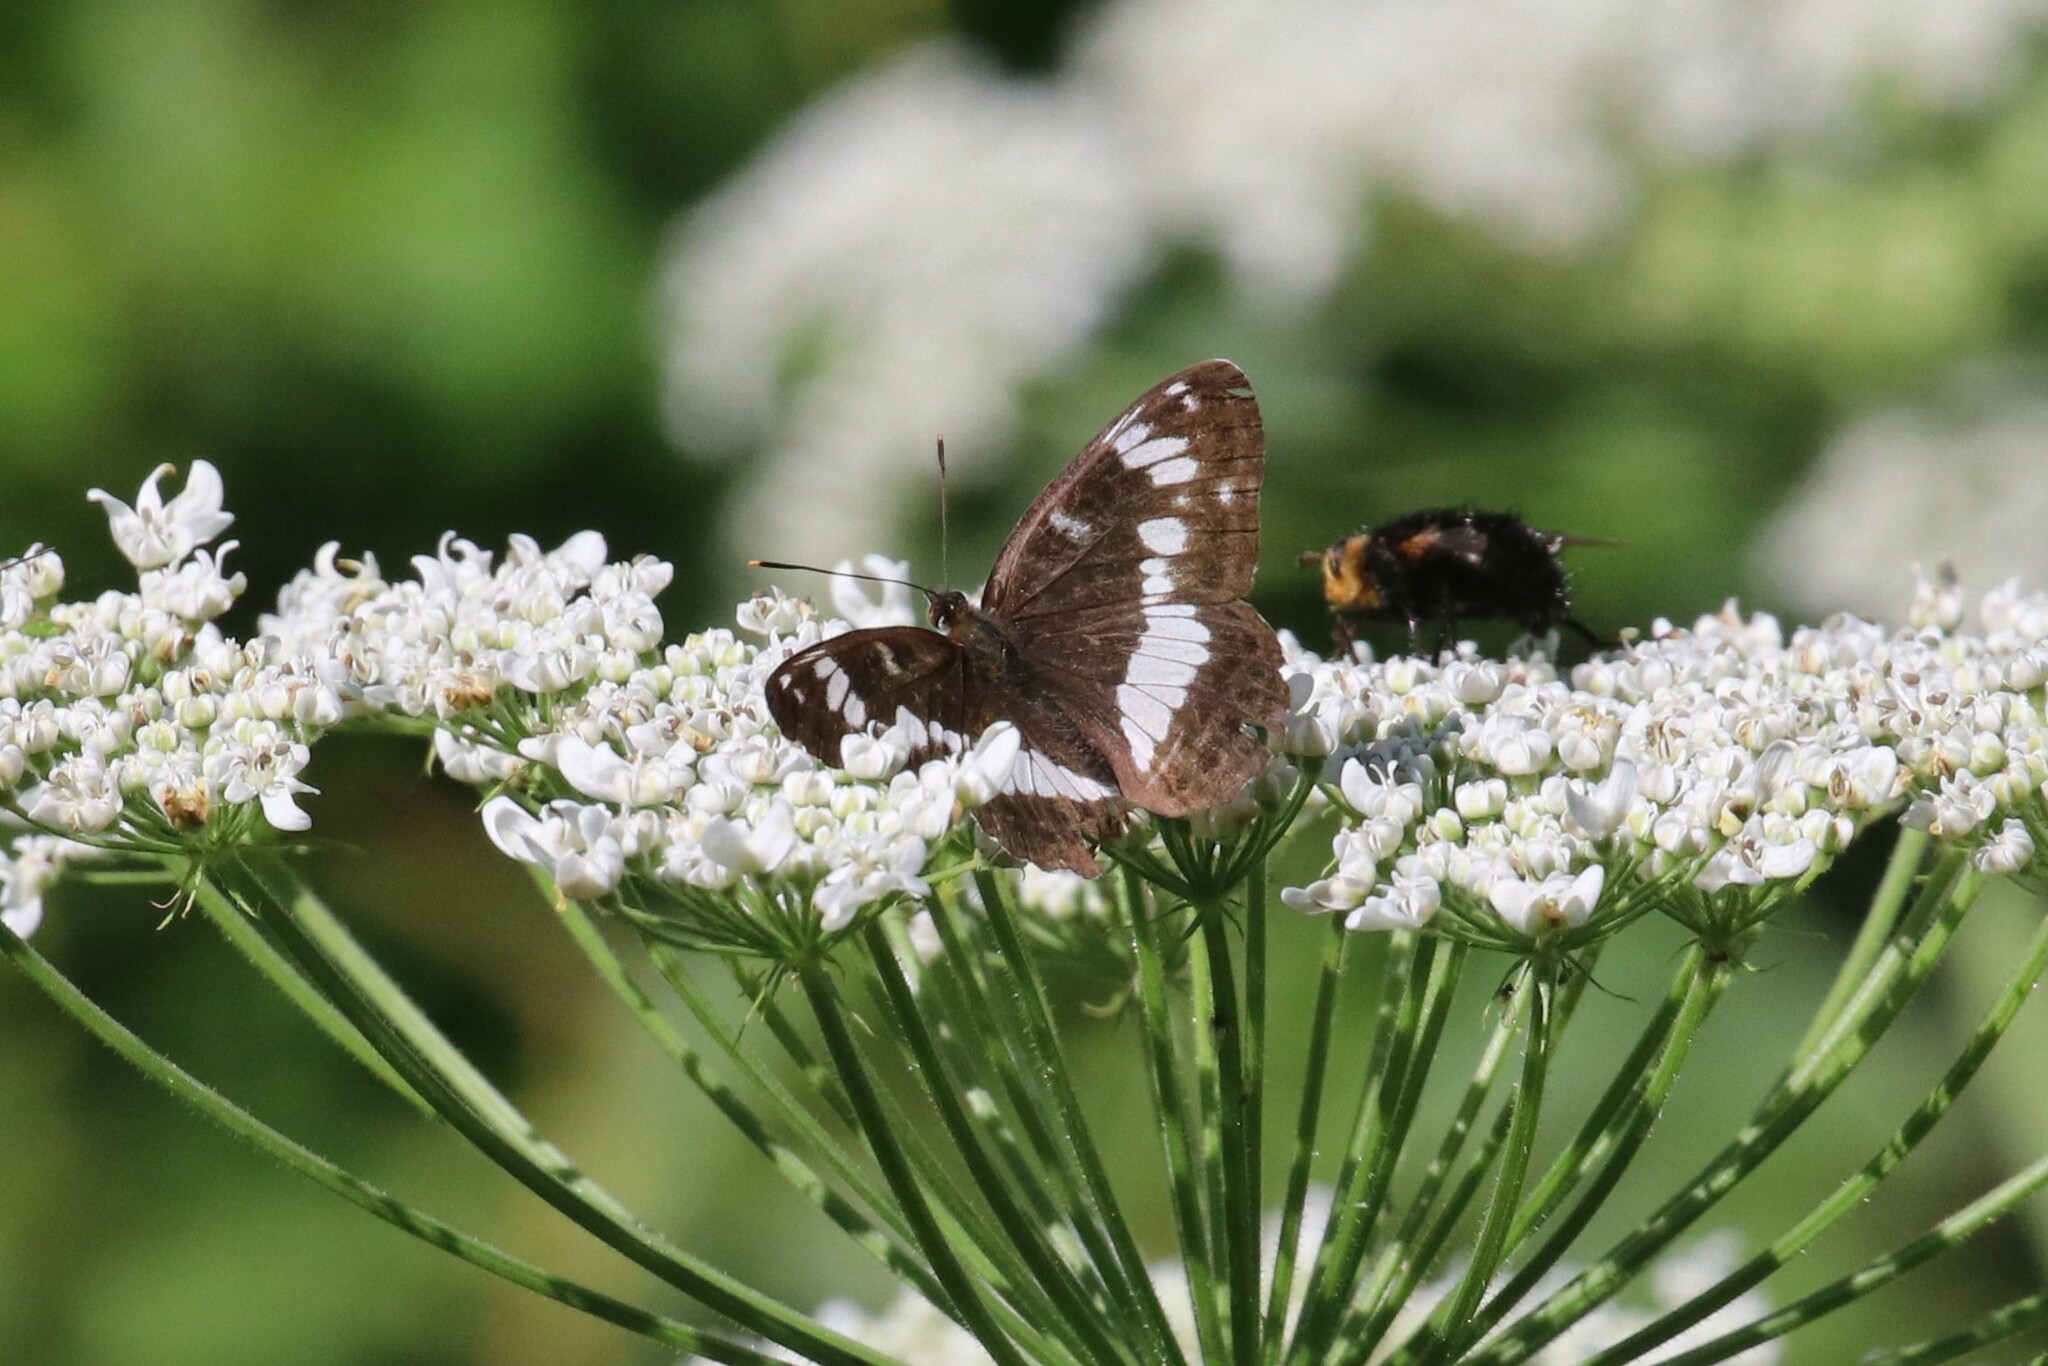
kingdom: Animalia
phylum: Arthropoda
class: Insecta
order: Lepidoptera
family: Nymphalidae
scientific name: Nymphalidae
